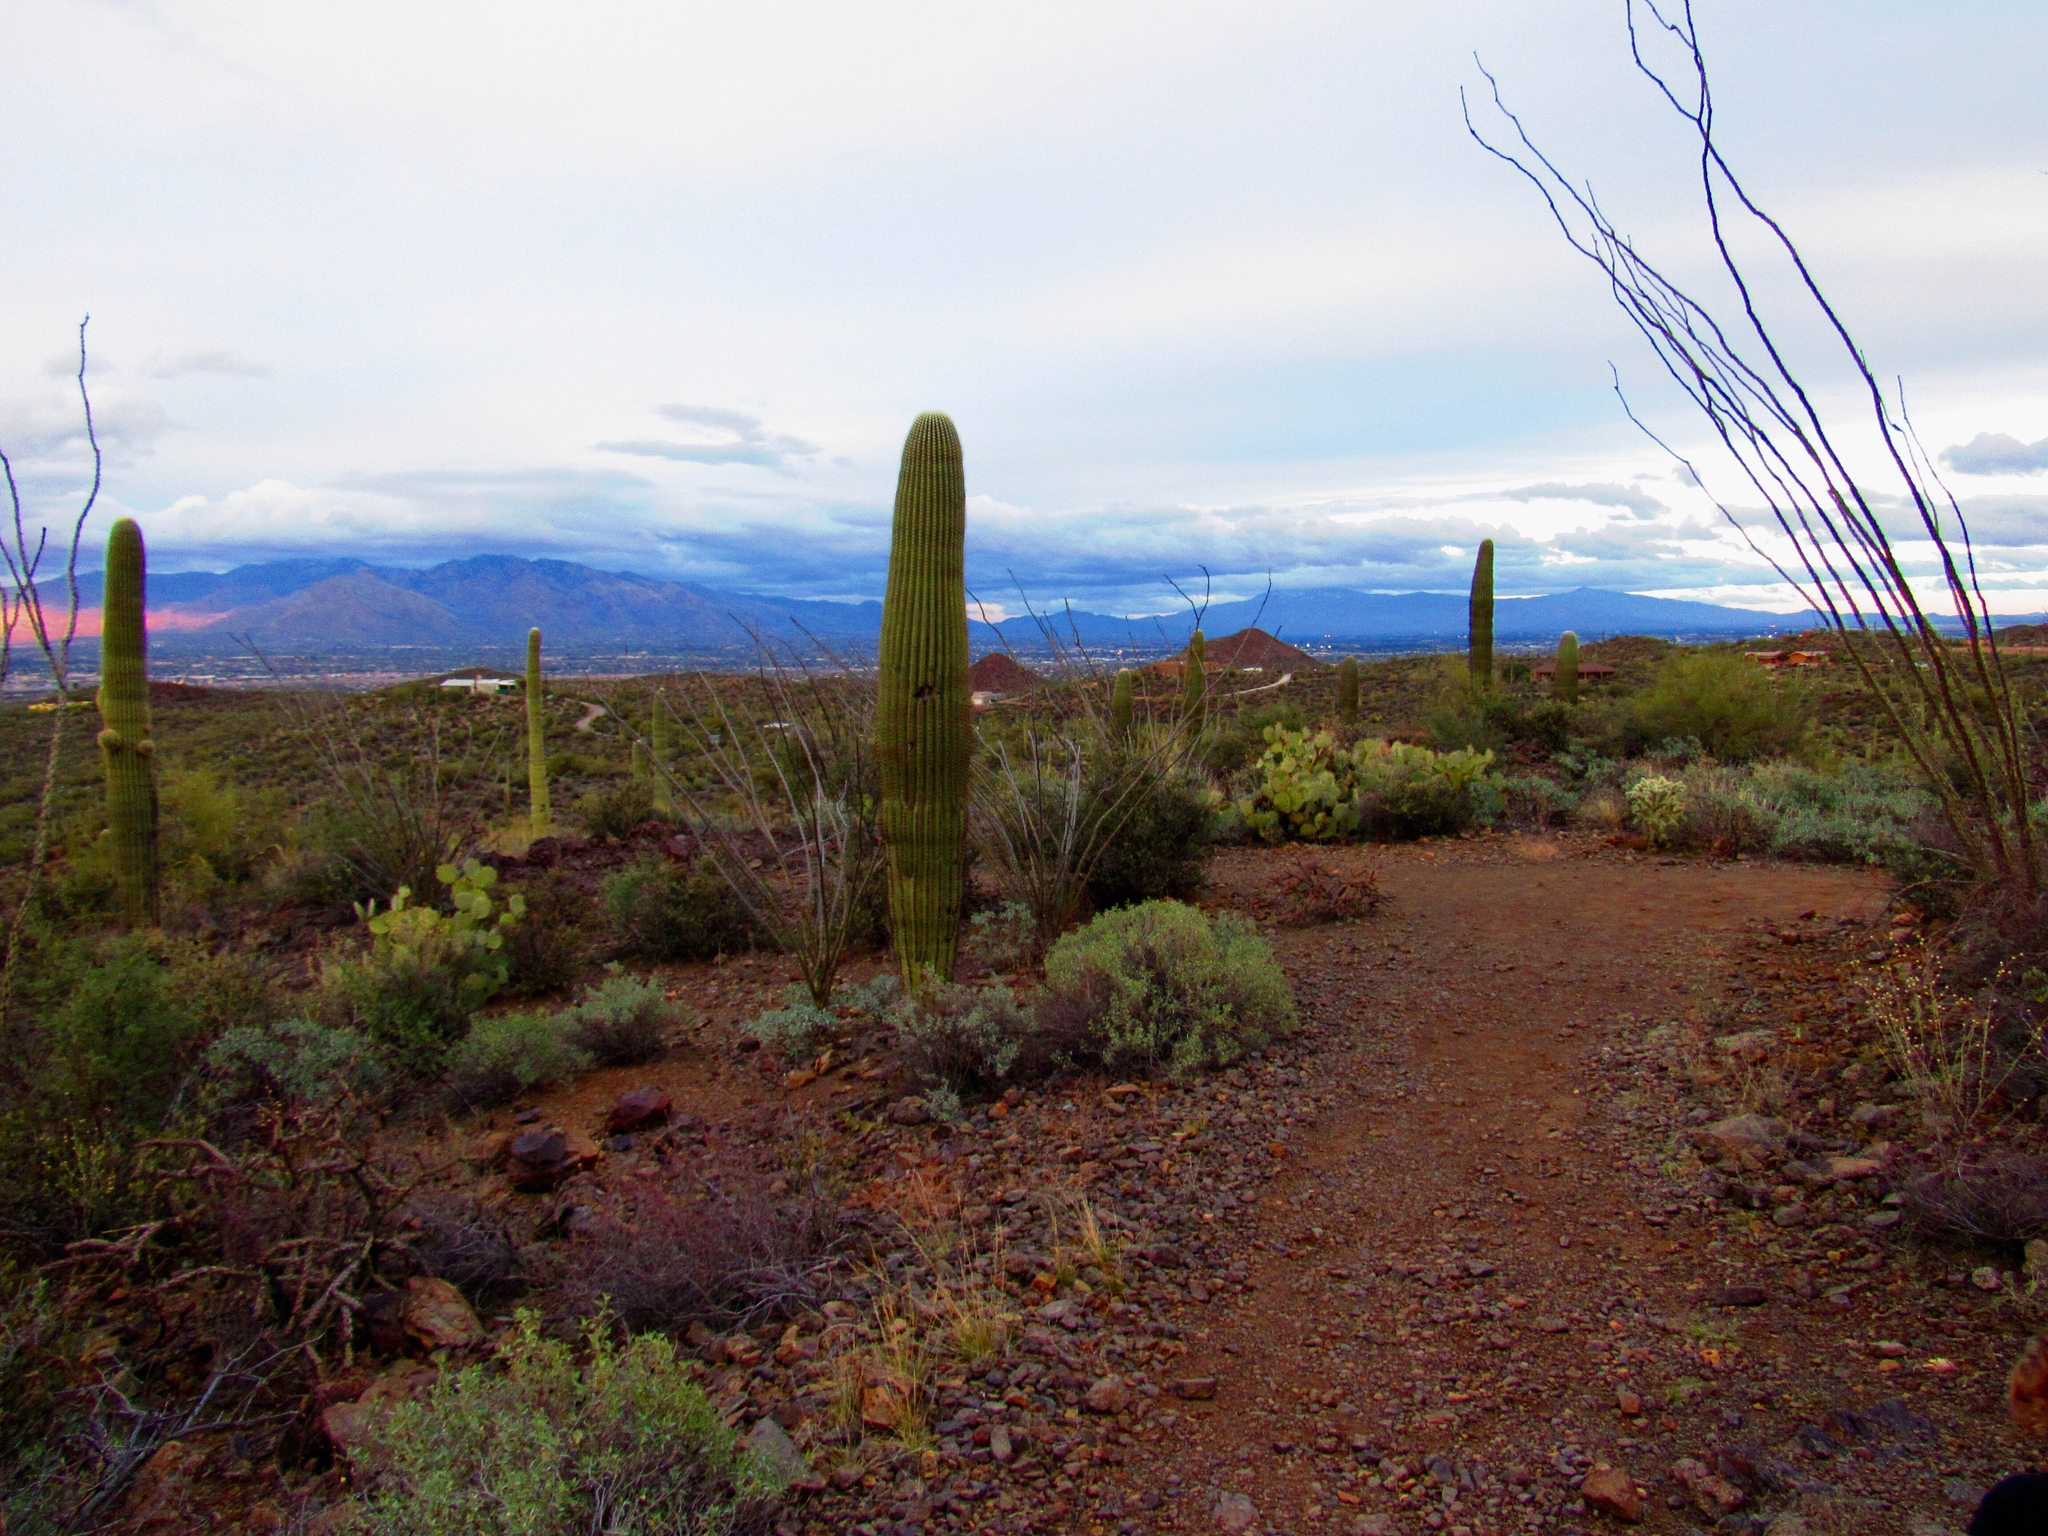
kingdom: Plantae
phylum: Tracheophyta
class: Magnoliopsida
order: Caryophyllales
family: Cactaceae
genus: Carnegiea
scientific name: Carnegiea gigantea
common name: Saguaro
